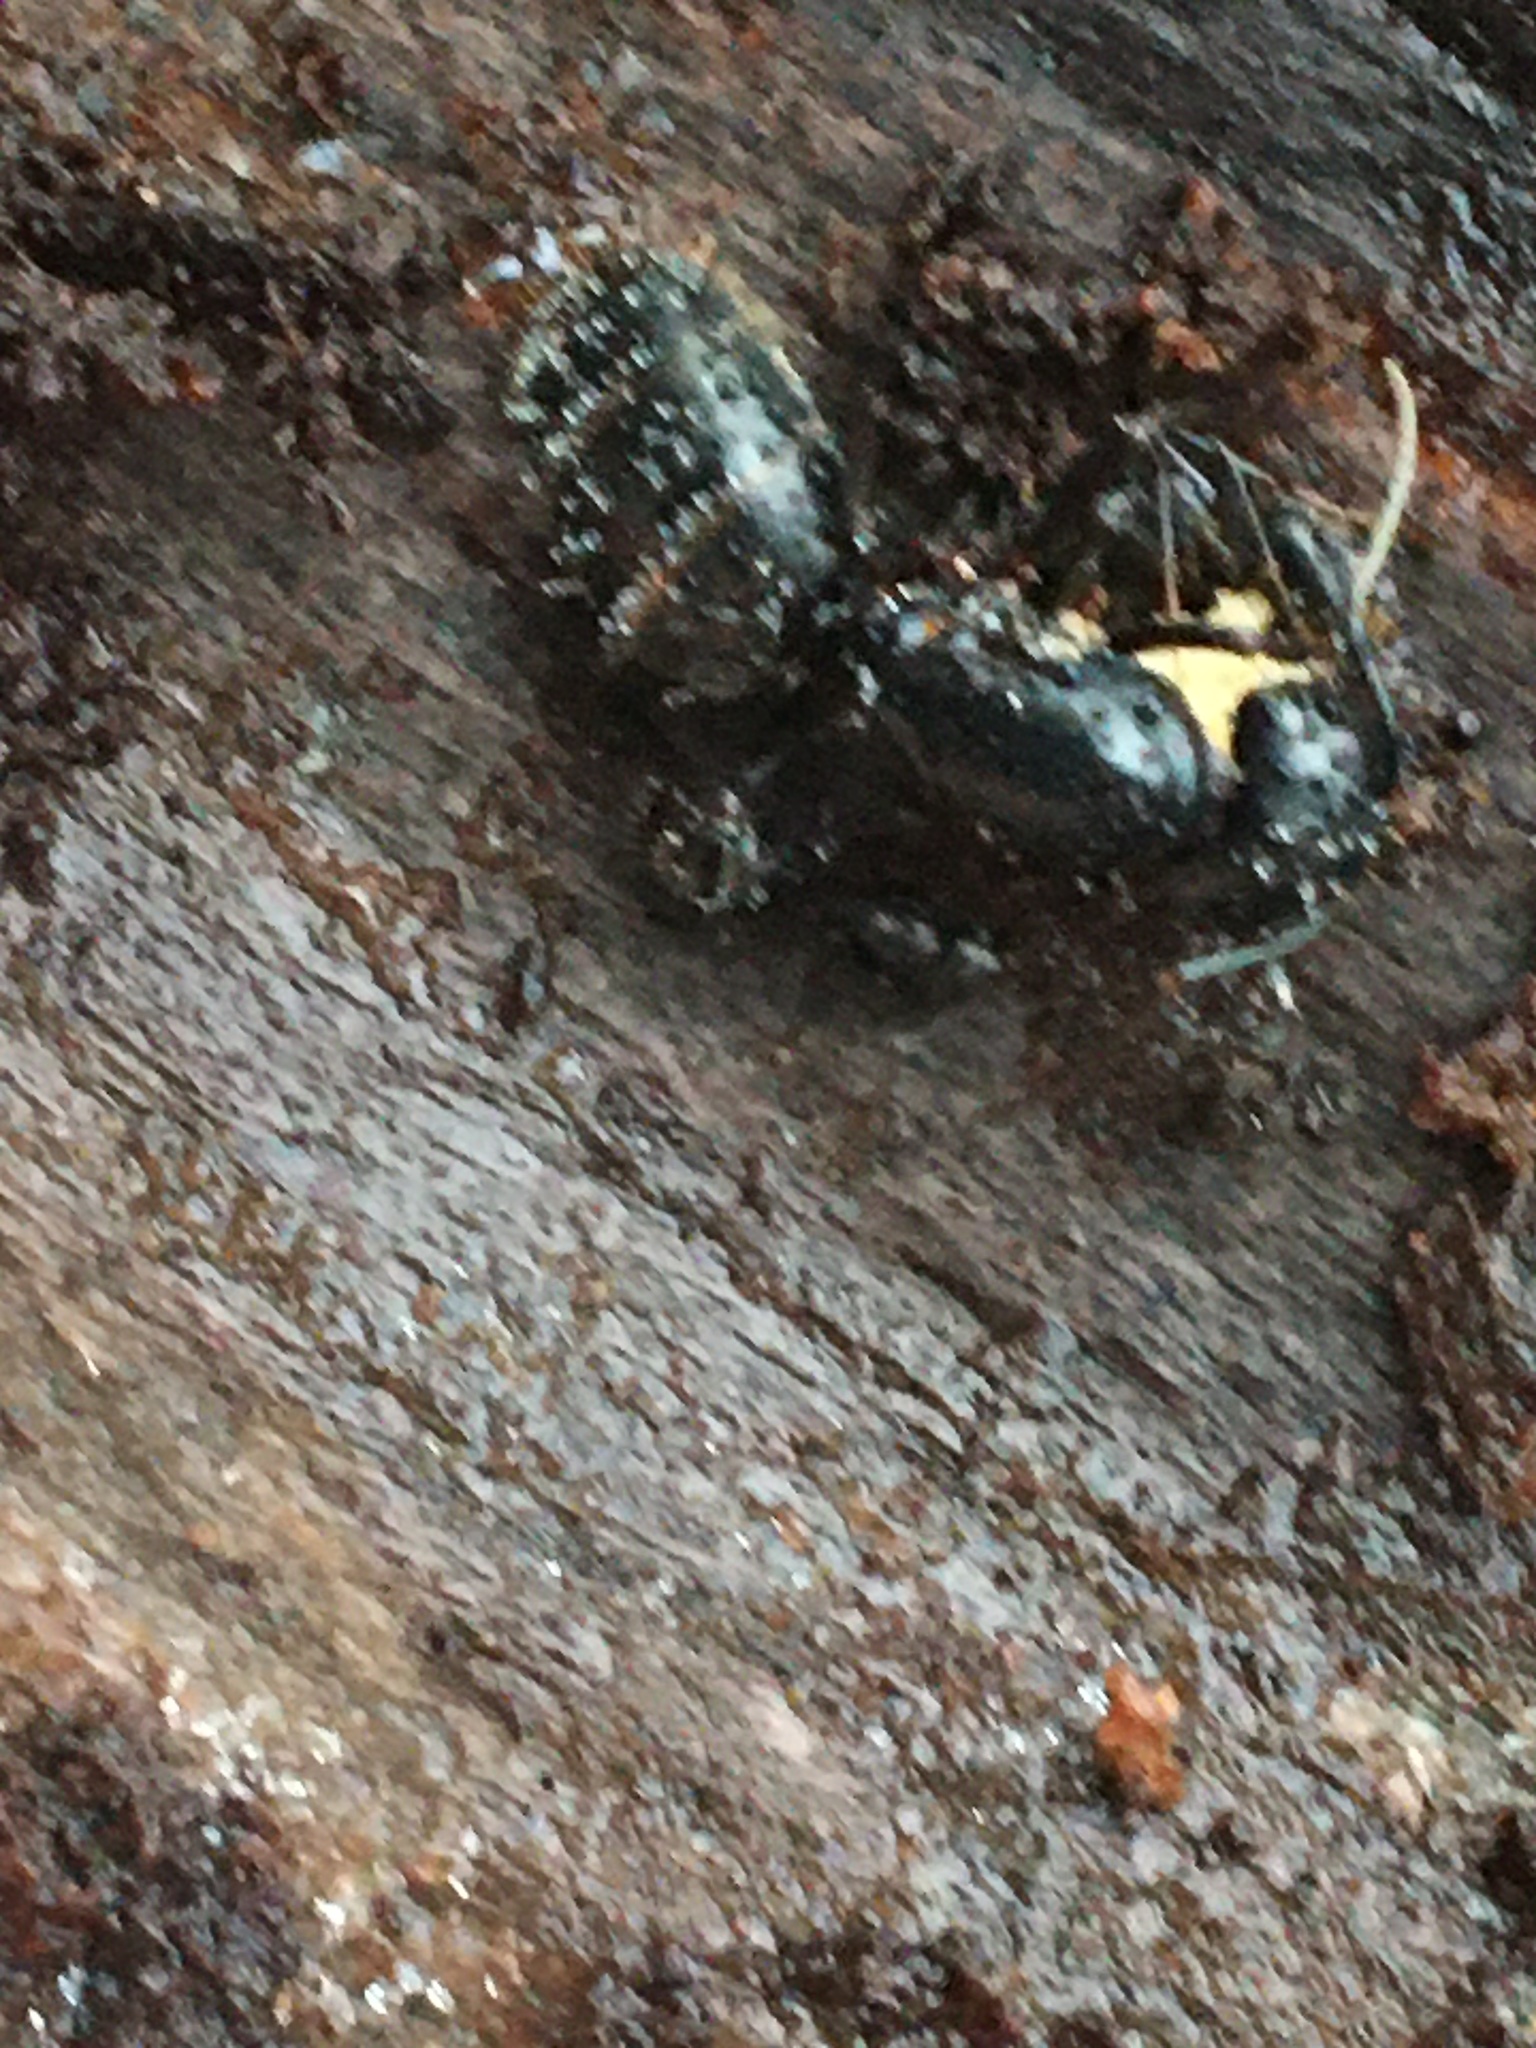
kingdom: Animalia
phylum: Arthropoda
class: Insecta
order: Hymenoptera
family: Formicidae
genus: Camponotus
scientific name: Camponotus pennsylvanicus
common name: Black carpenter ant
